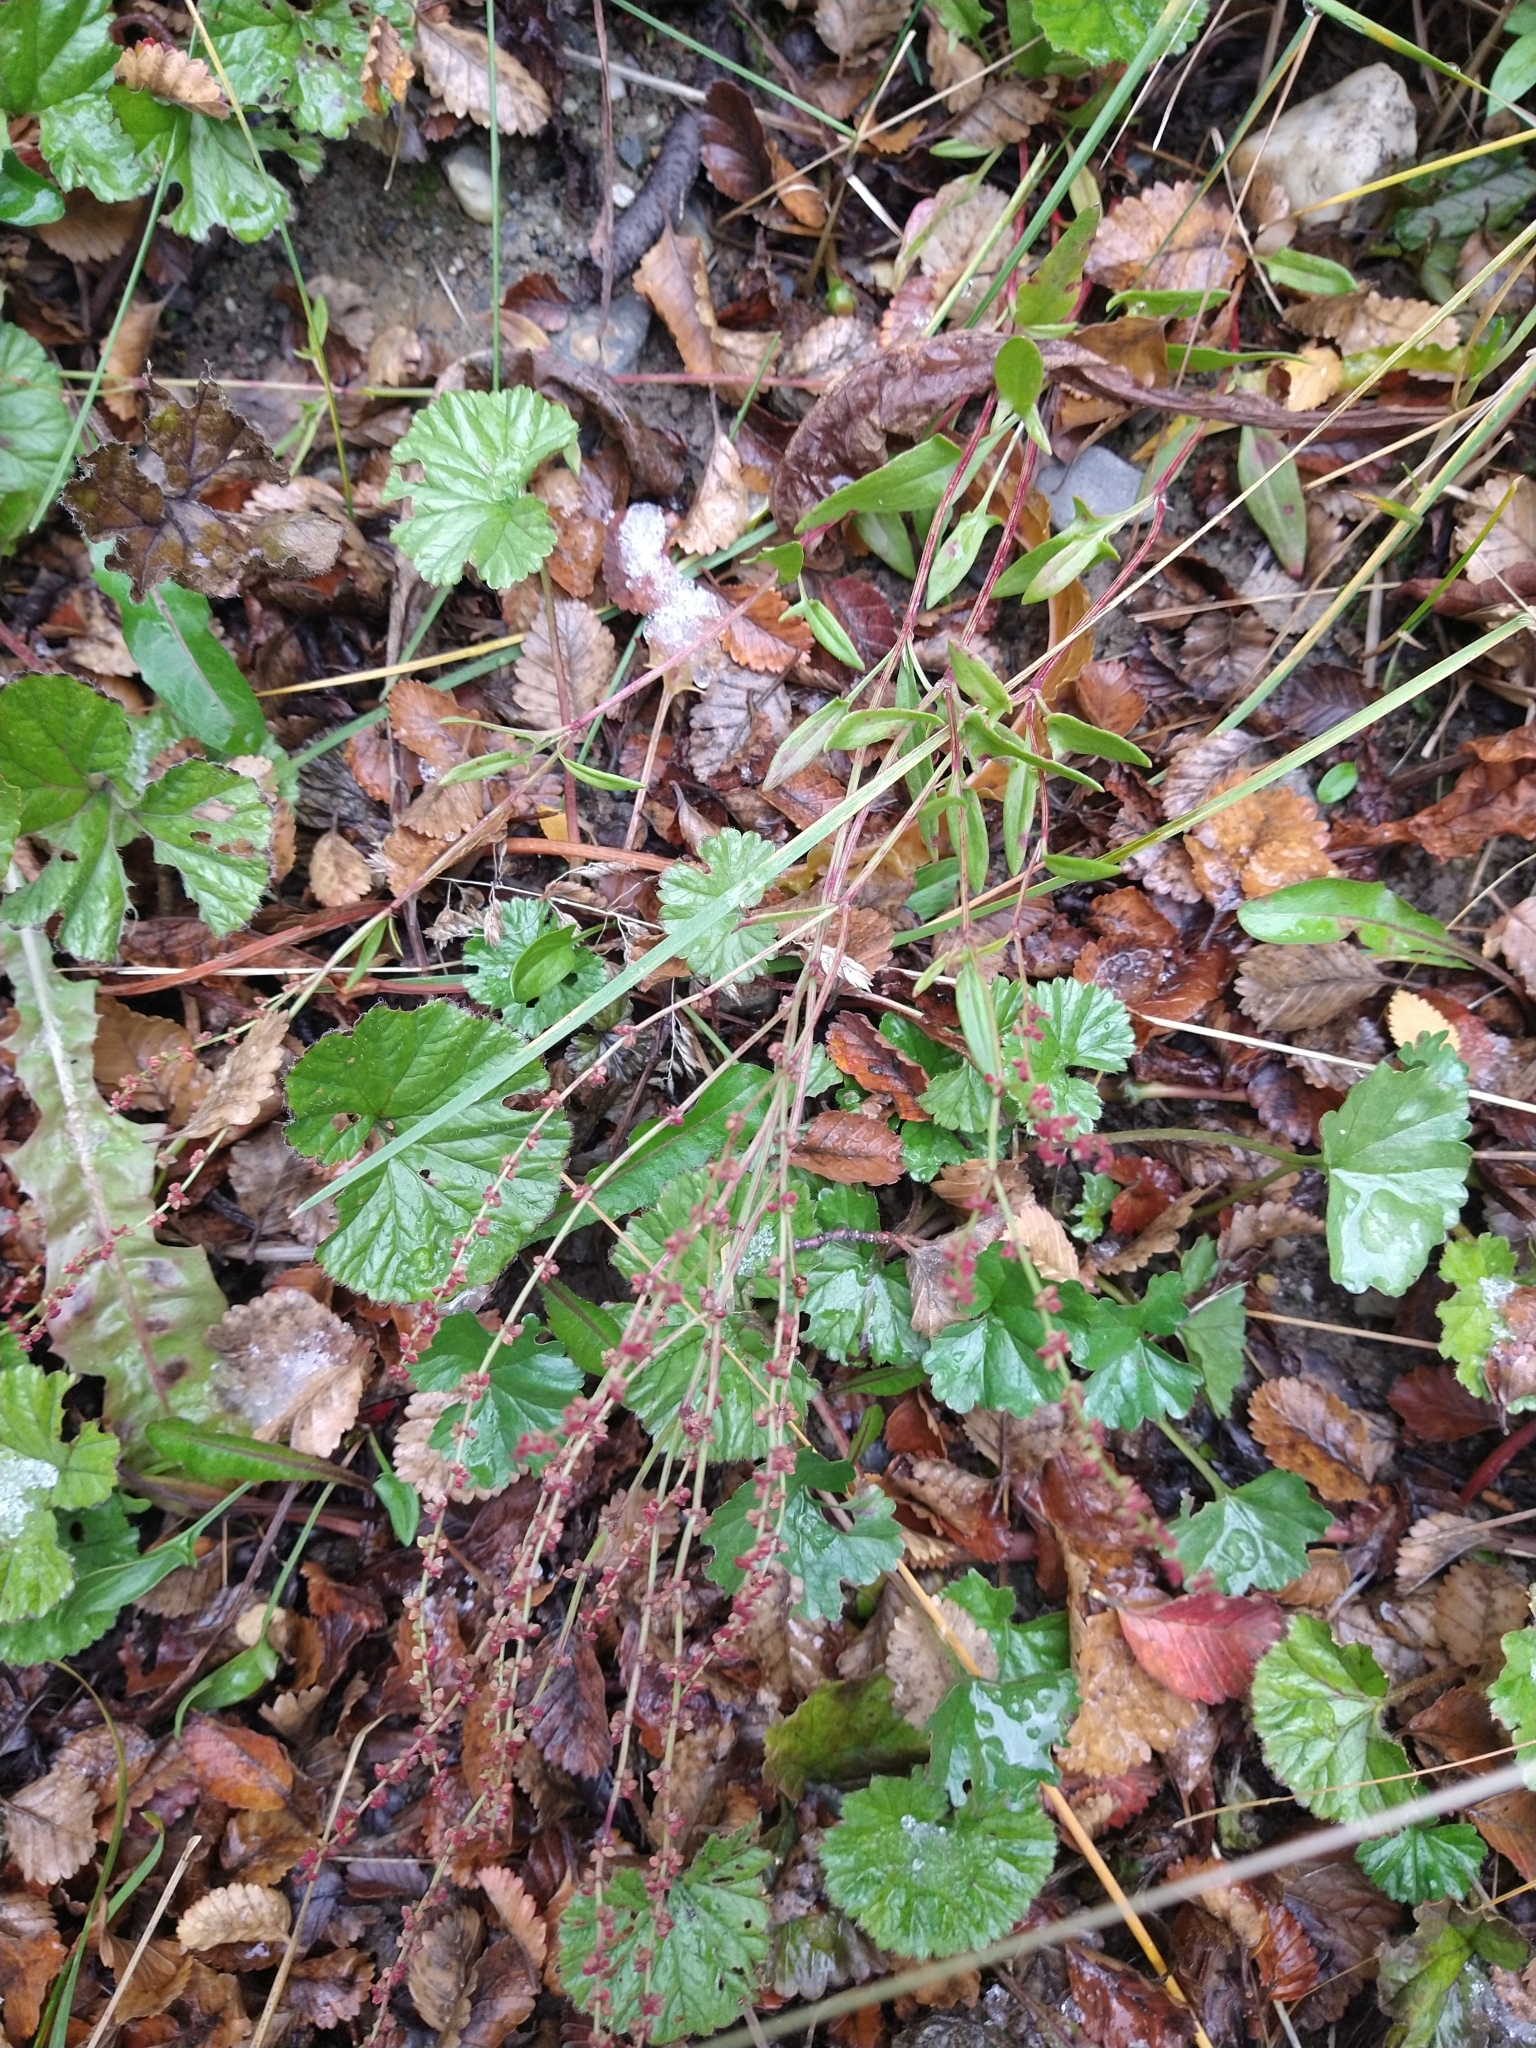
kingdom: Plantae
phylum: Tracheophyta
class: Magnoliopsida
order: Caryophyllales
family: Polygonaceae
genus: Rumex
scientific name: Rumex acetosella
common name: Common sheep sorrel
